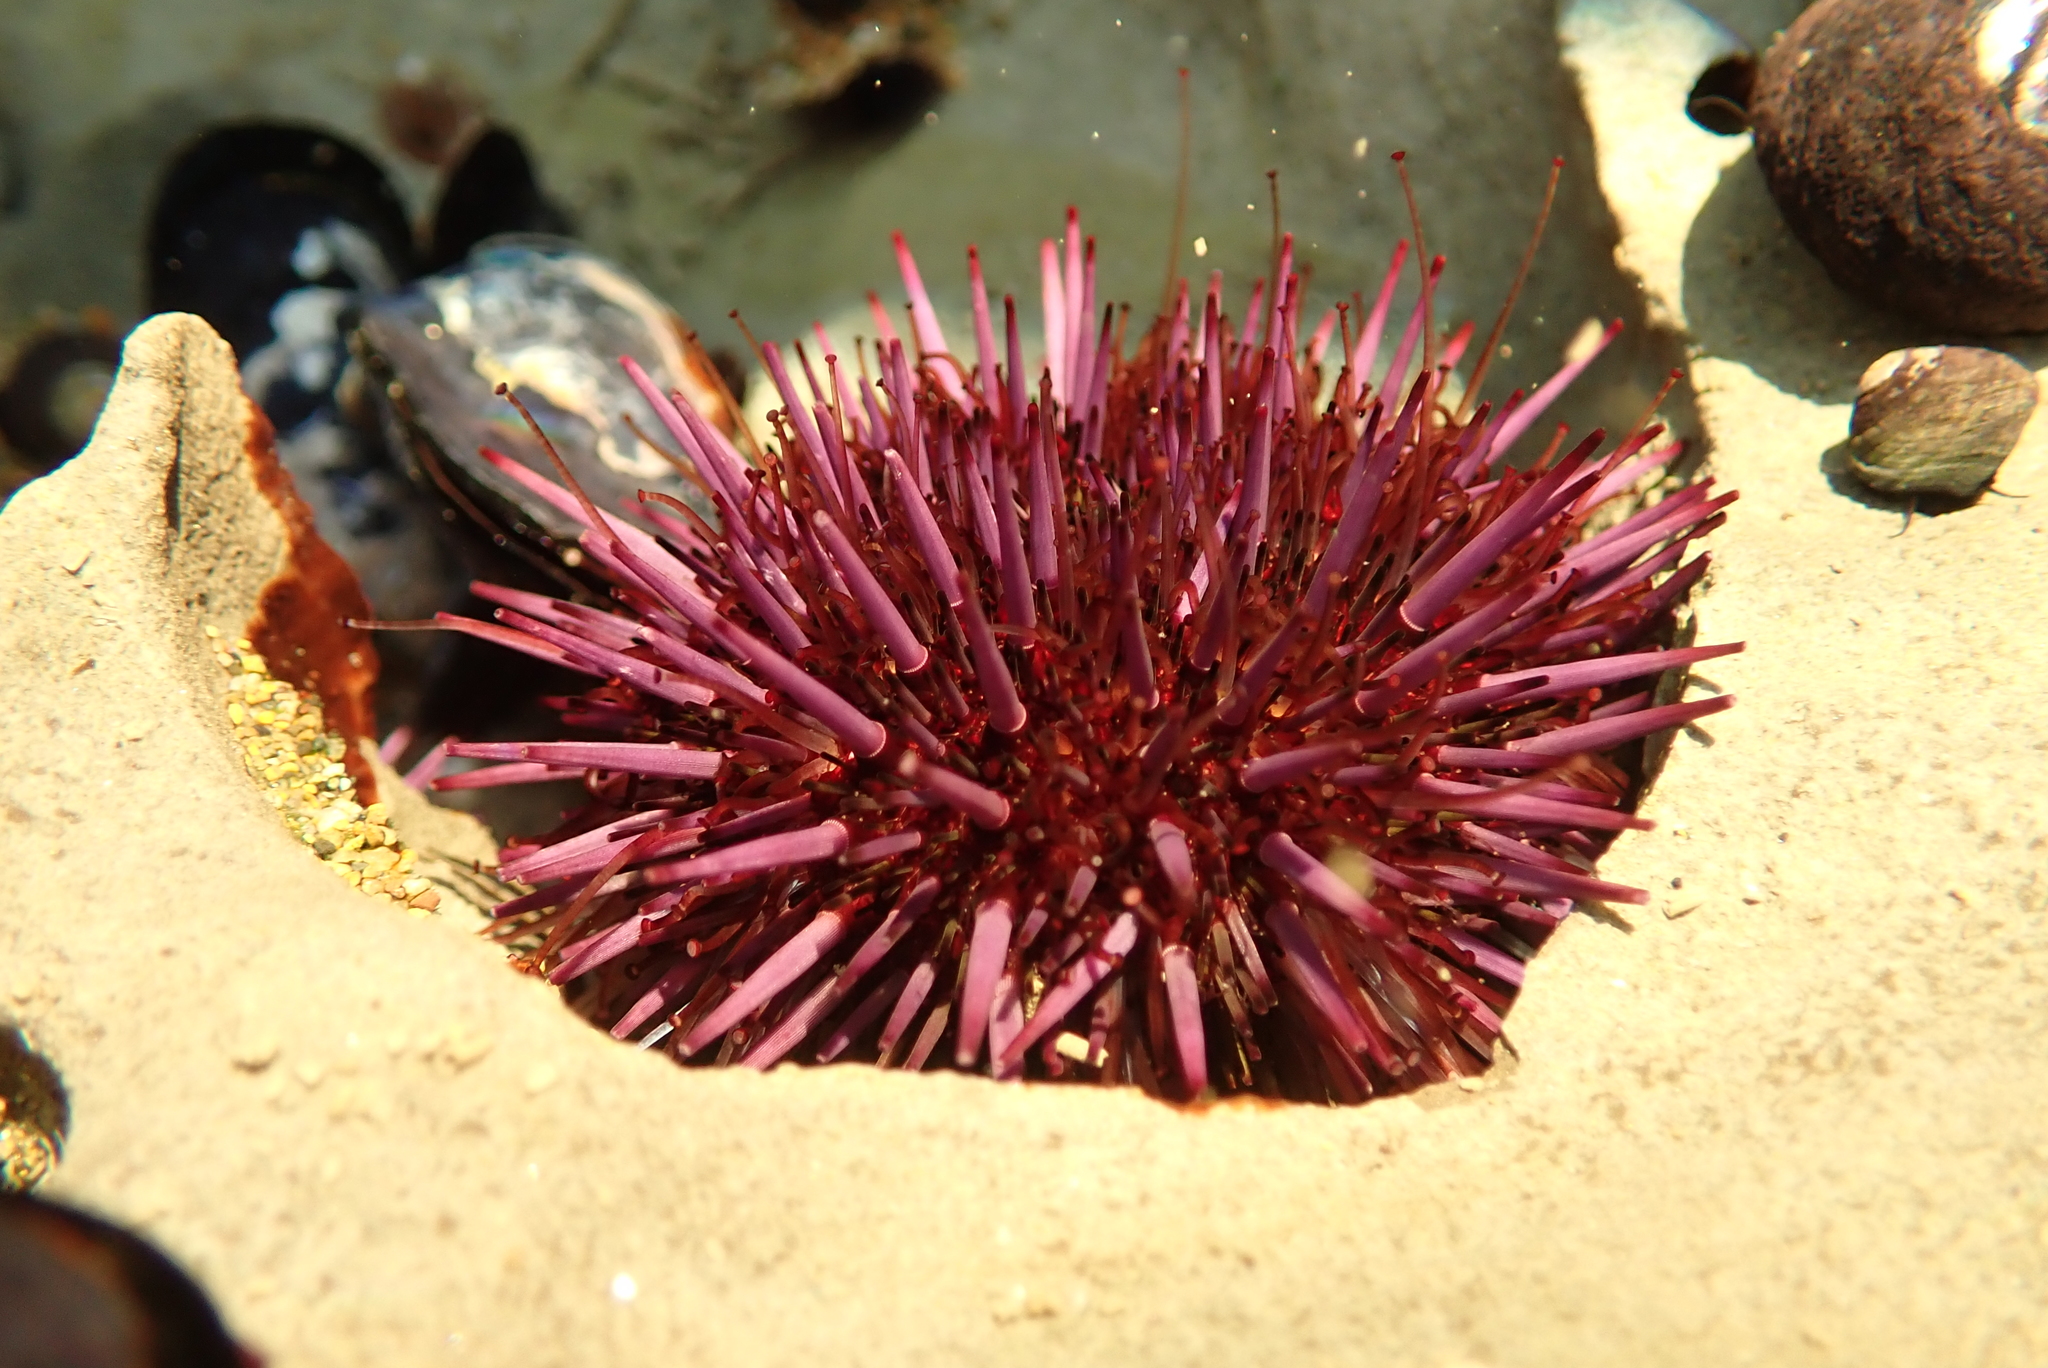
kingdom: Animalia
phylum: Echinodermata
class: Echinoidea
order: Camarodonta
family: Strongylocentrotidae
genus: Strongylocentrotus
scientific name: Strongylocentrotus purpuratus
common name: Purple sea urchin
